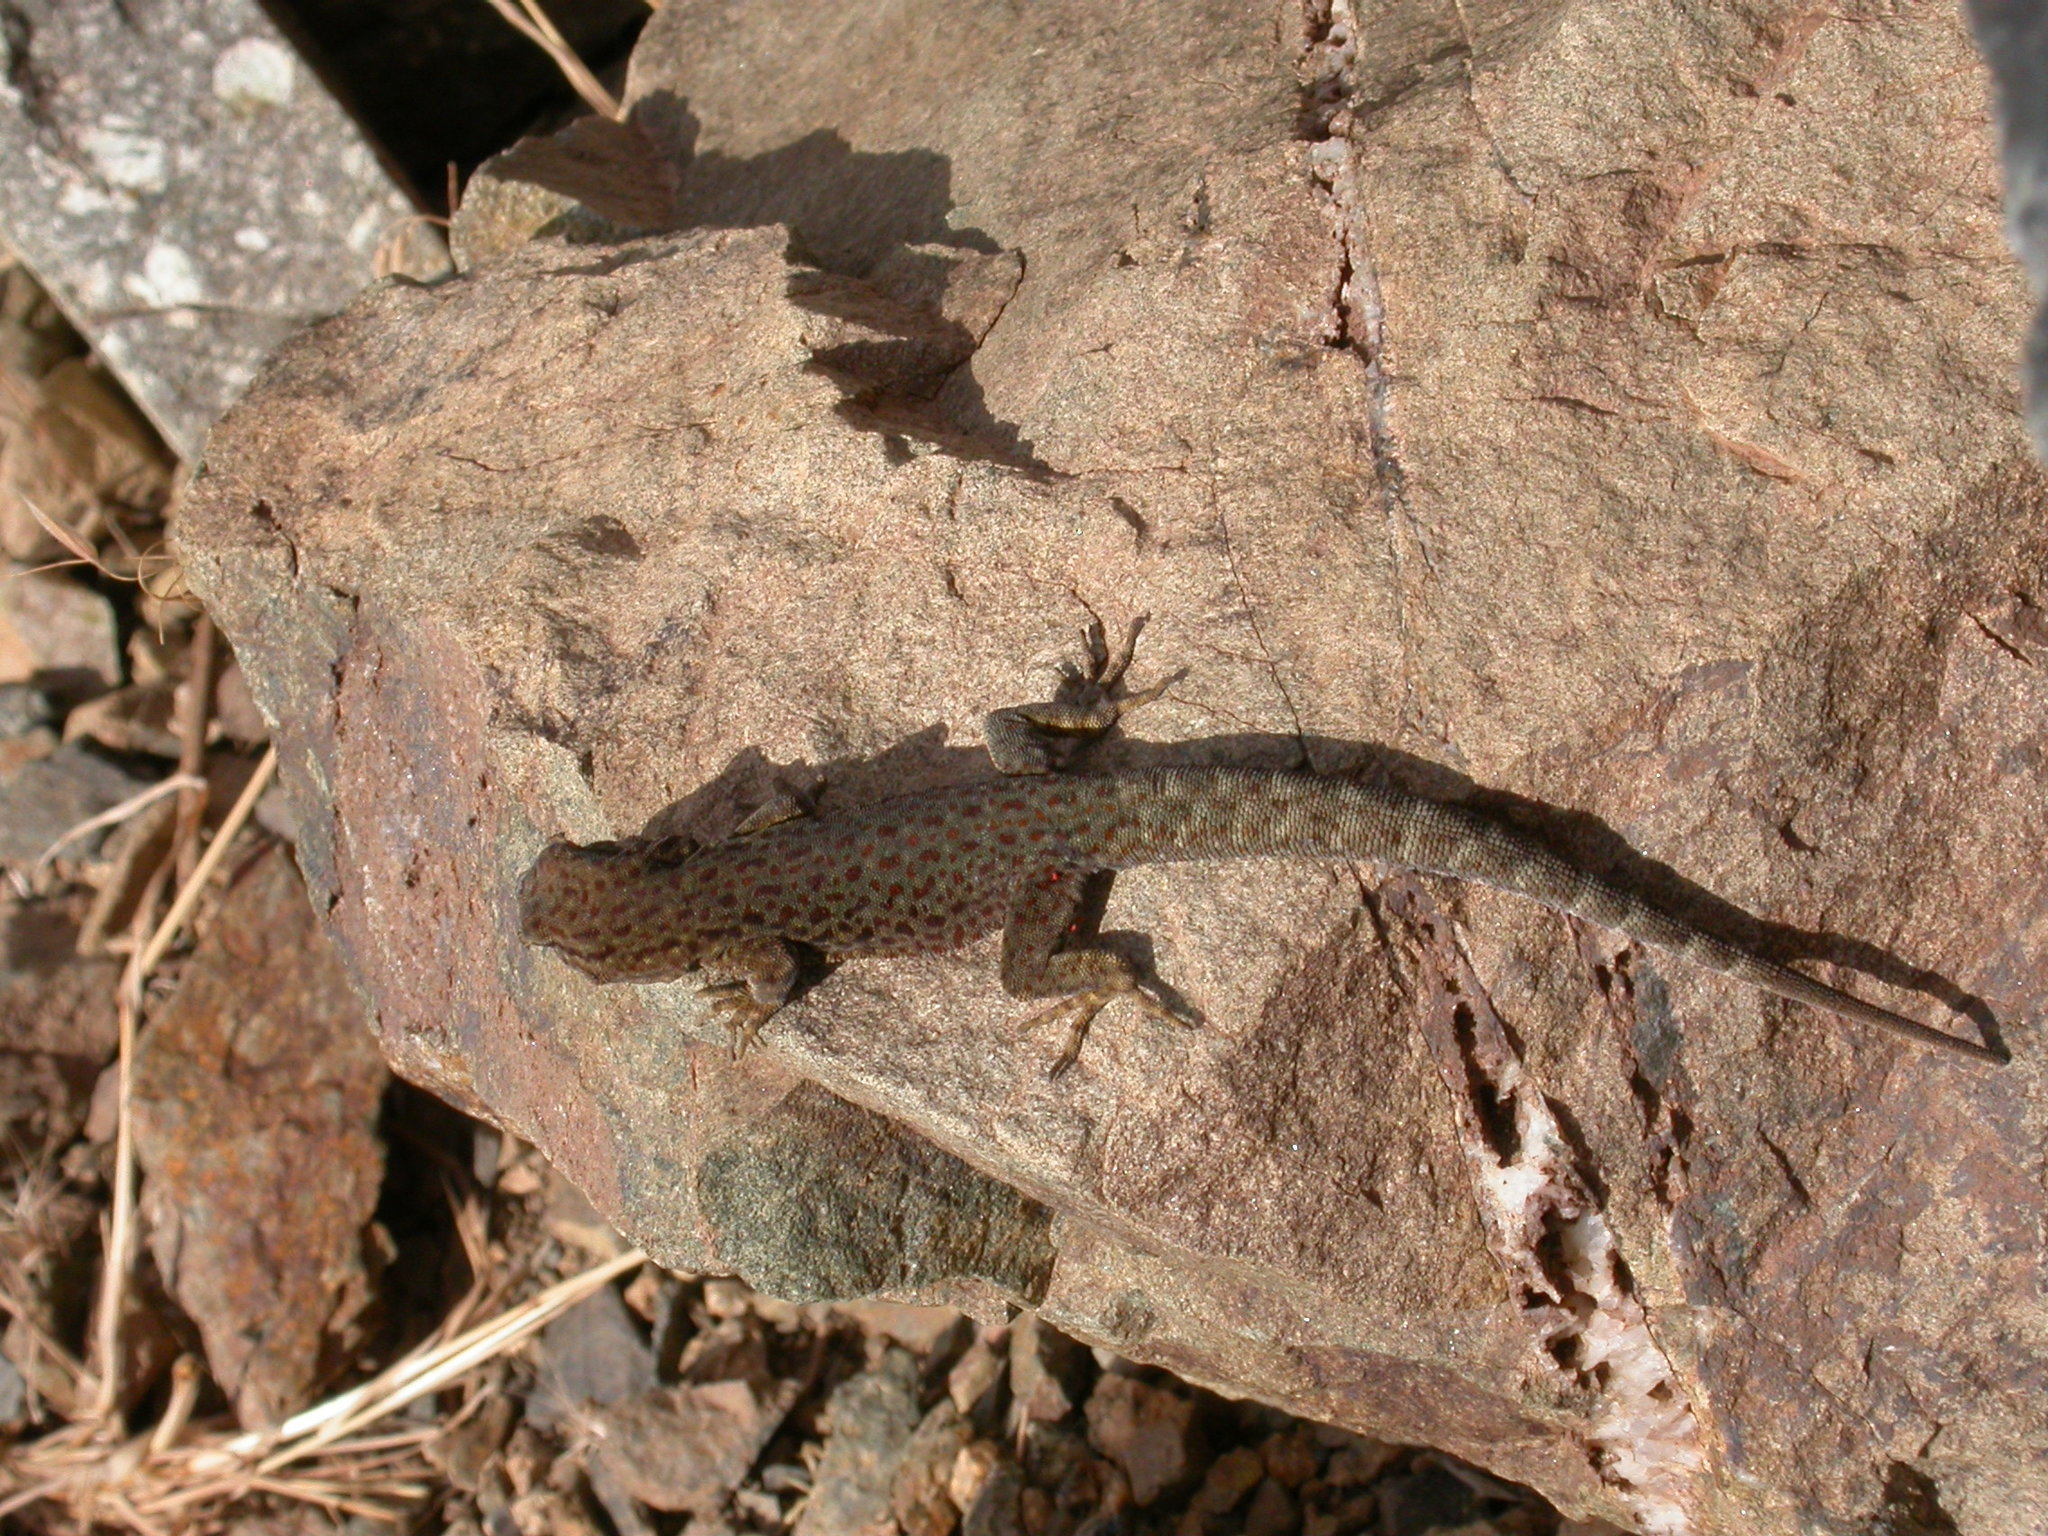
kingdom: Animalia
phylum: Chordata
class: Squamata
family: Sphaerodactylidae
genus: Quedenfeldtia
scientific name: Quedenfeldtia trachyblepharus
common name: Atlas day gecko
